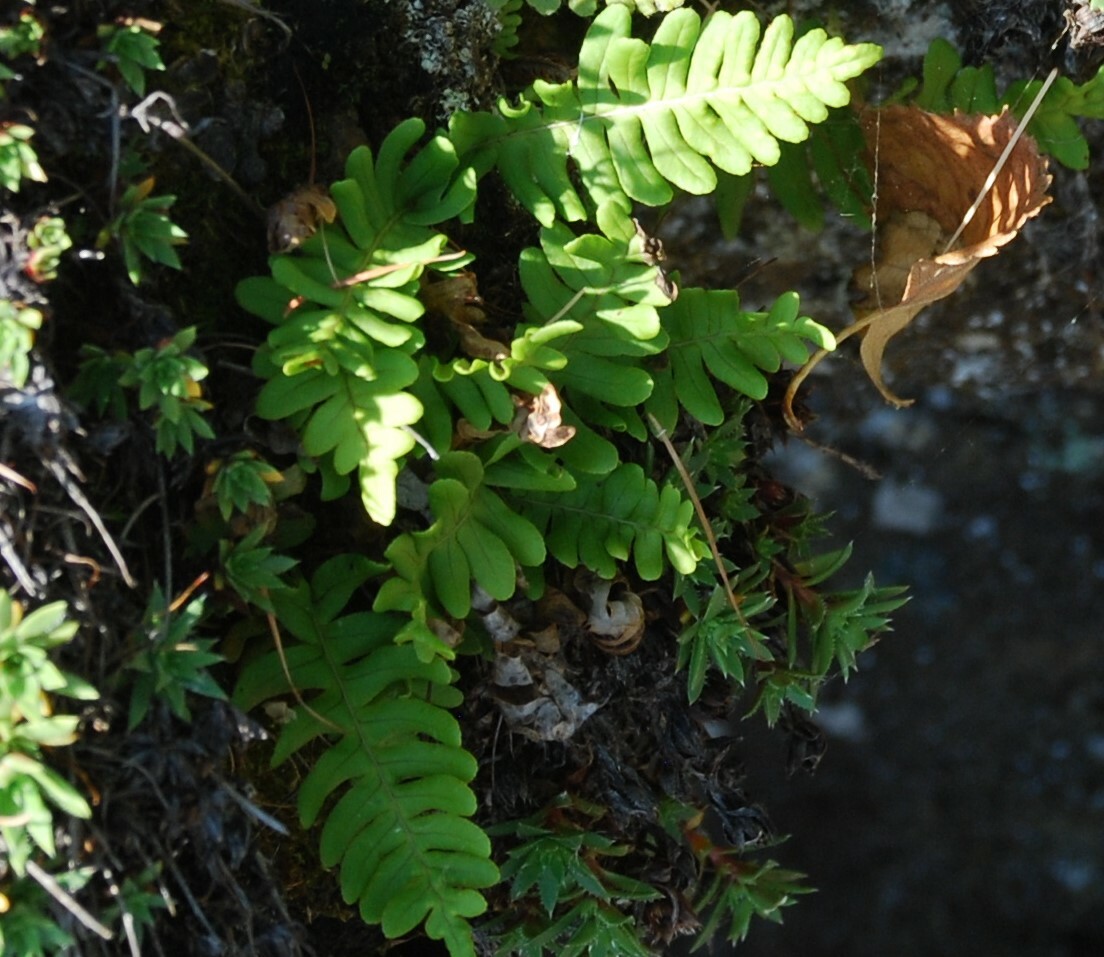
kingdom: Plantae
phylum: Tracheophyta
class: Polypodiopsida
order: Polypodiales
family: Polypodiaceae
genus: Polypodium
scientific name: Polypodium sibiricum
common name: Siberian polypody
